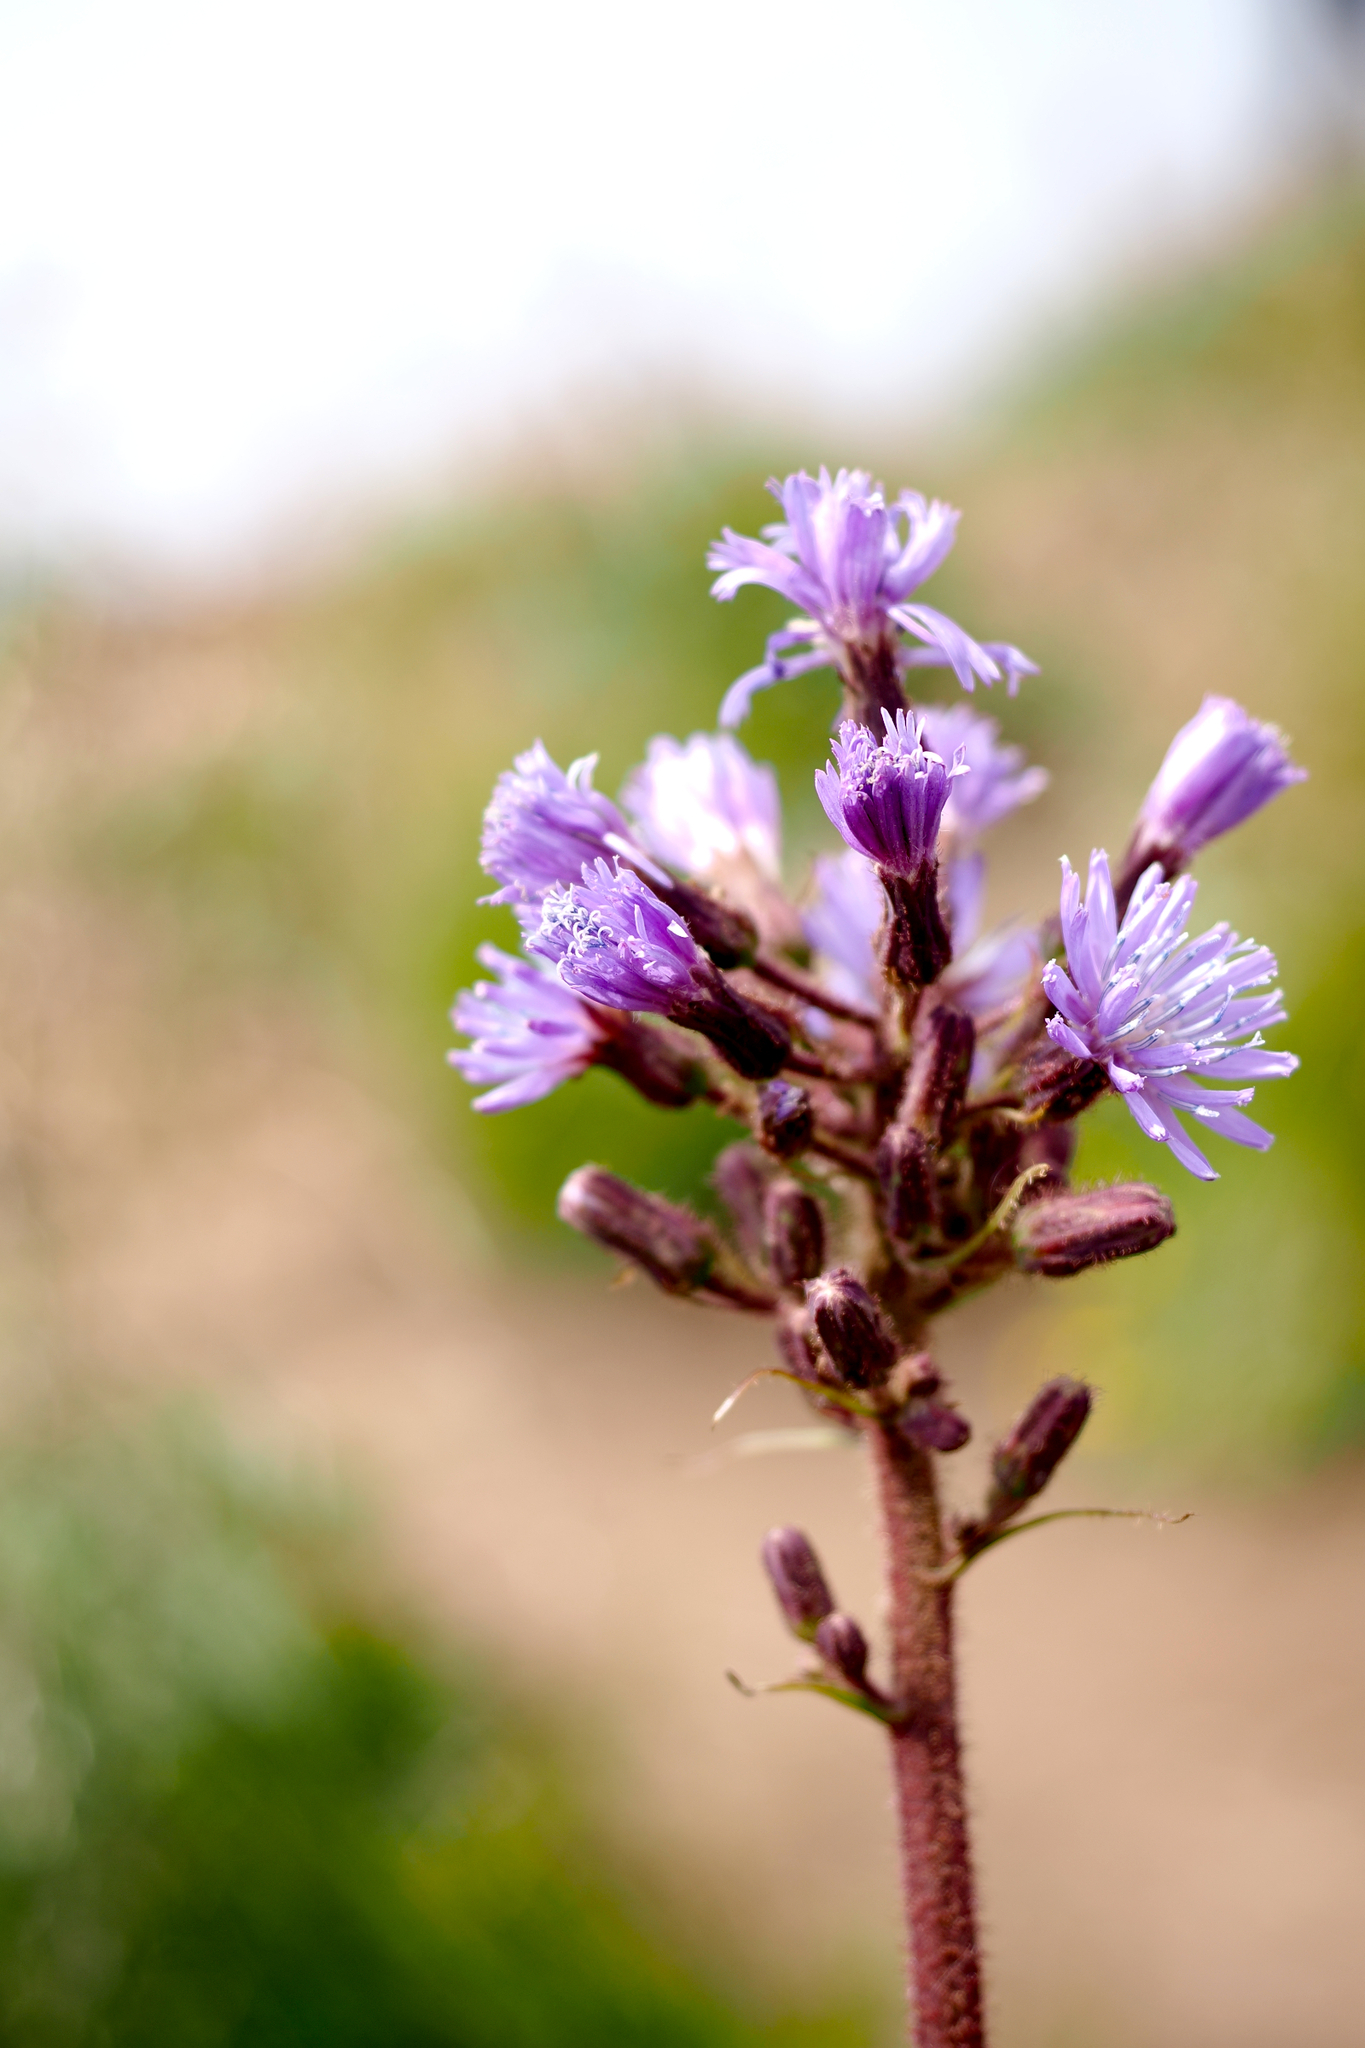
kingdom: Plantae
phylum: Tracheophyta
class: Magnoliopsida
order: Asterales
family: Asteraceae
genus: Cicerbita
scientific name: Cicerbita alpina
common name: Alpine blue-sow-thistle
